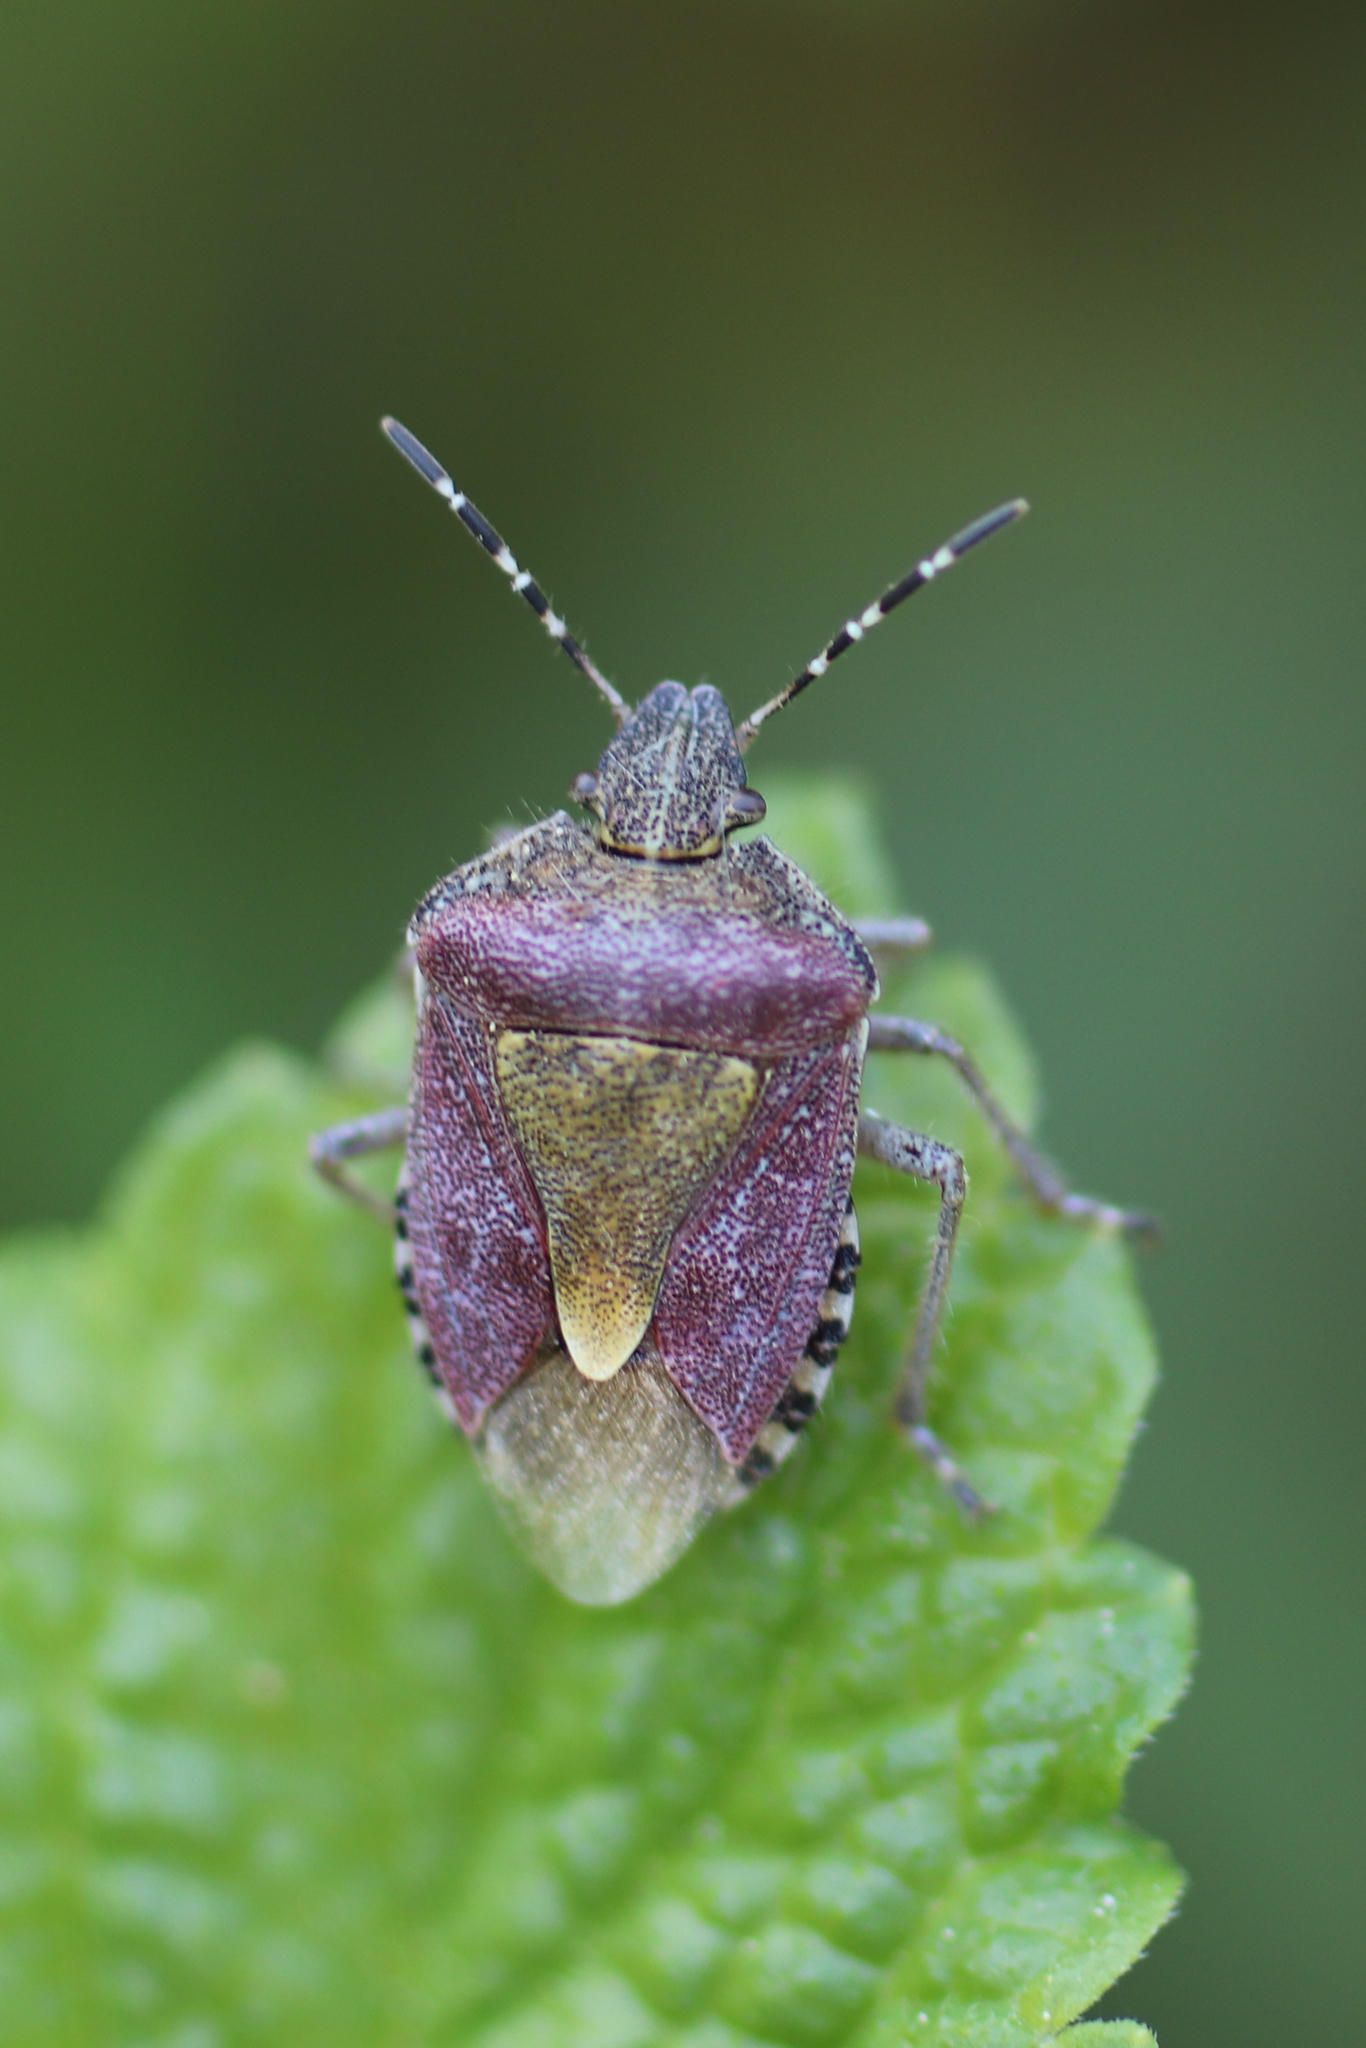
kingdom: Animalia
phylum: Arthropoda
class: Insecta
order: Hemiptera
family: Pentatomidae
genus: Dolycoris
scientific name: Dolycoris baccarum
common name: Sloe bug
